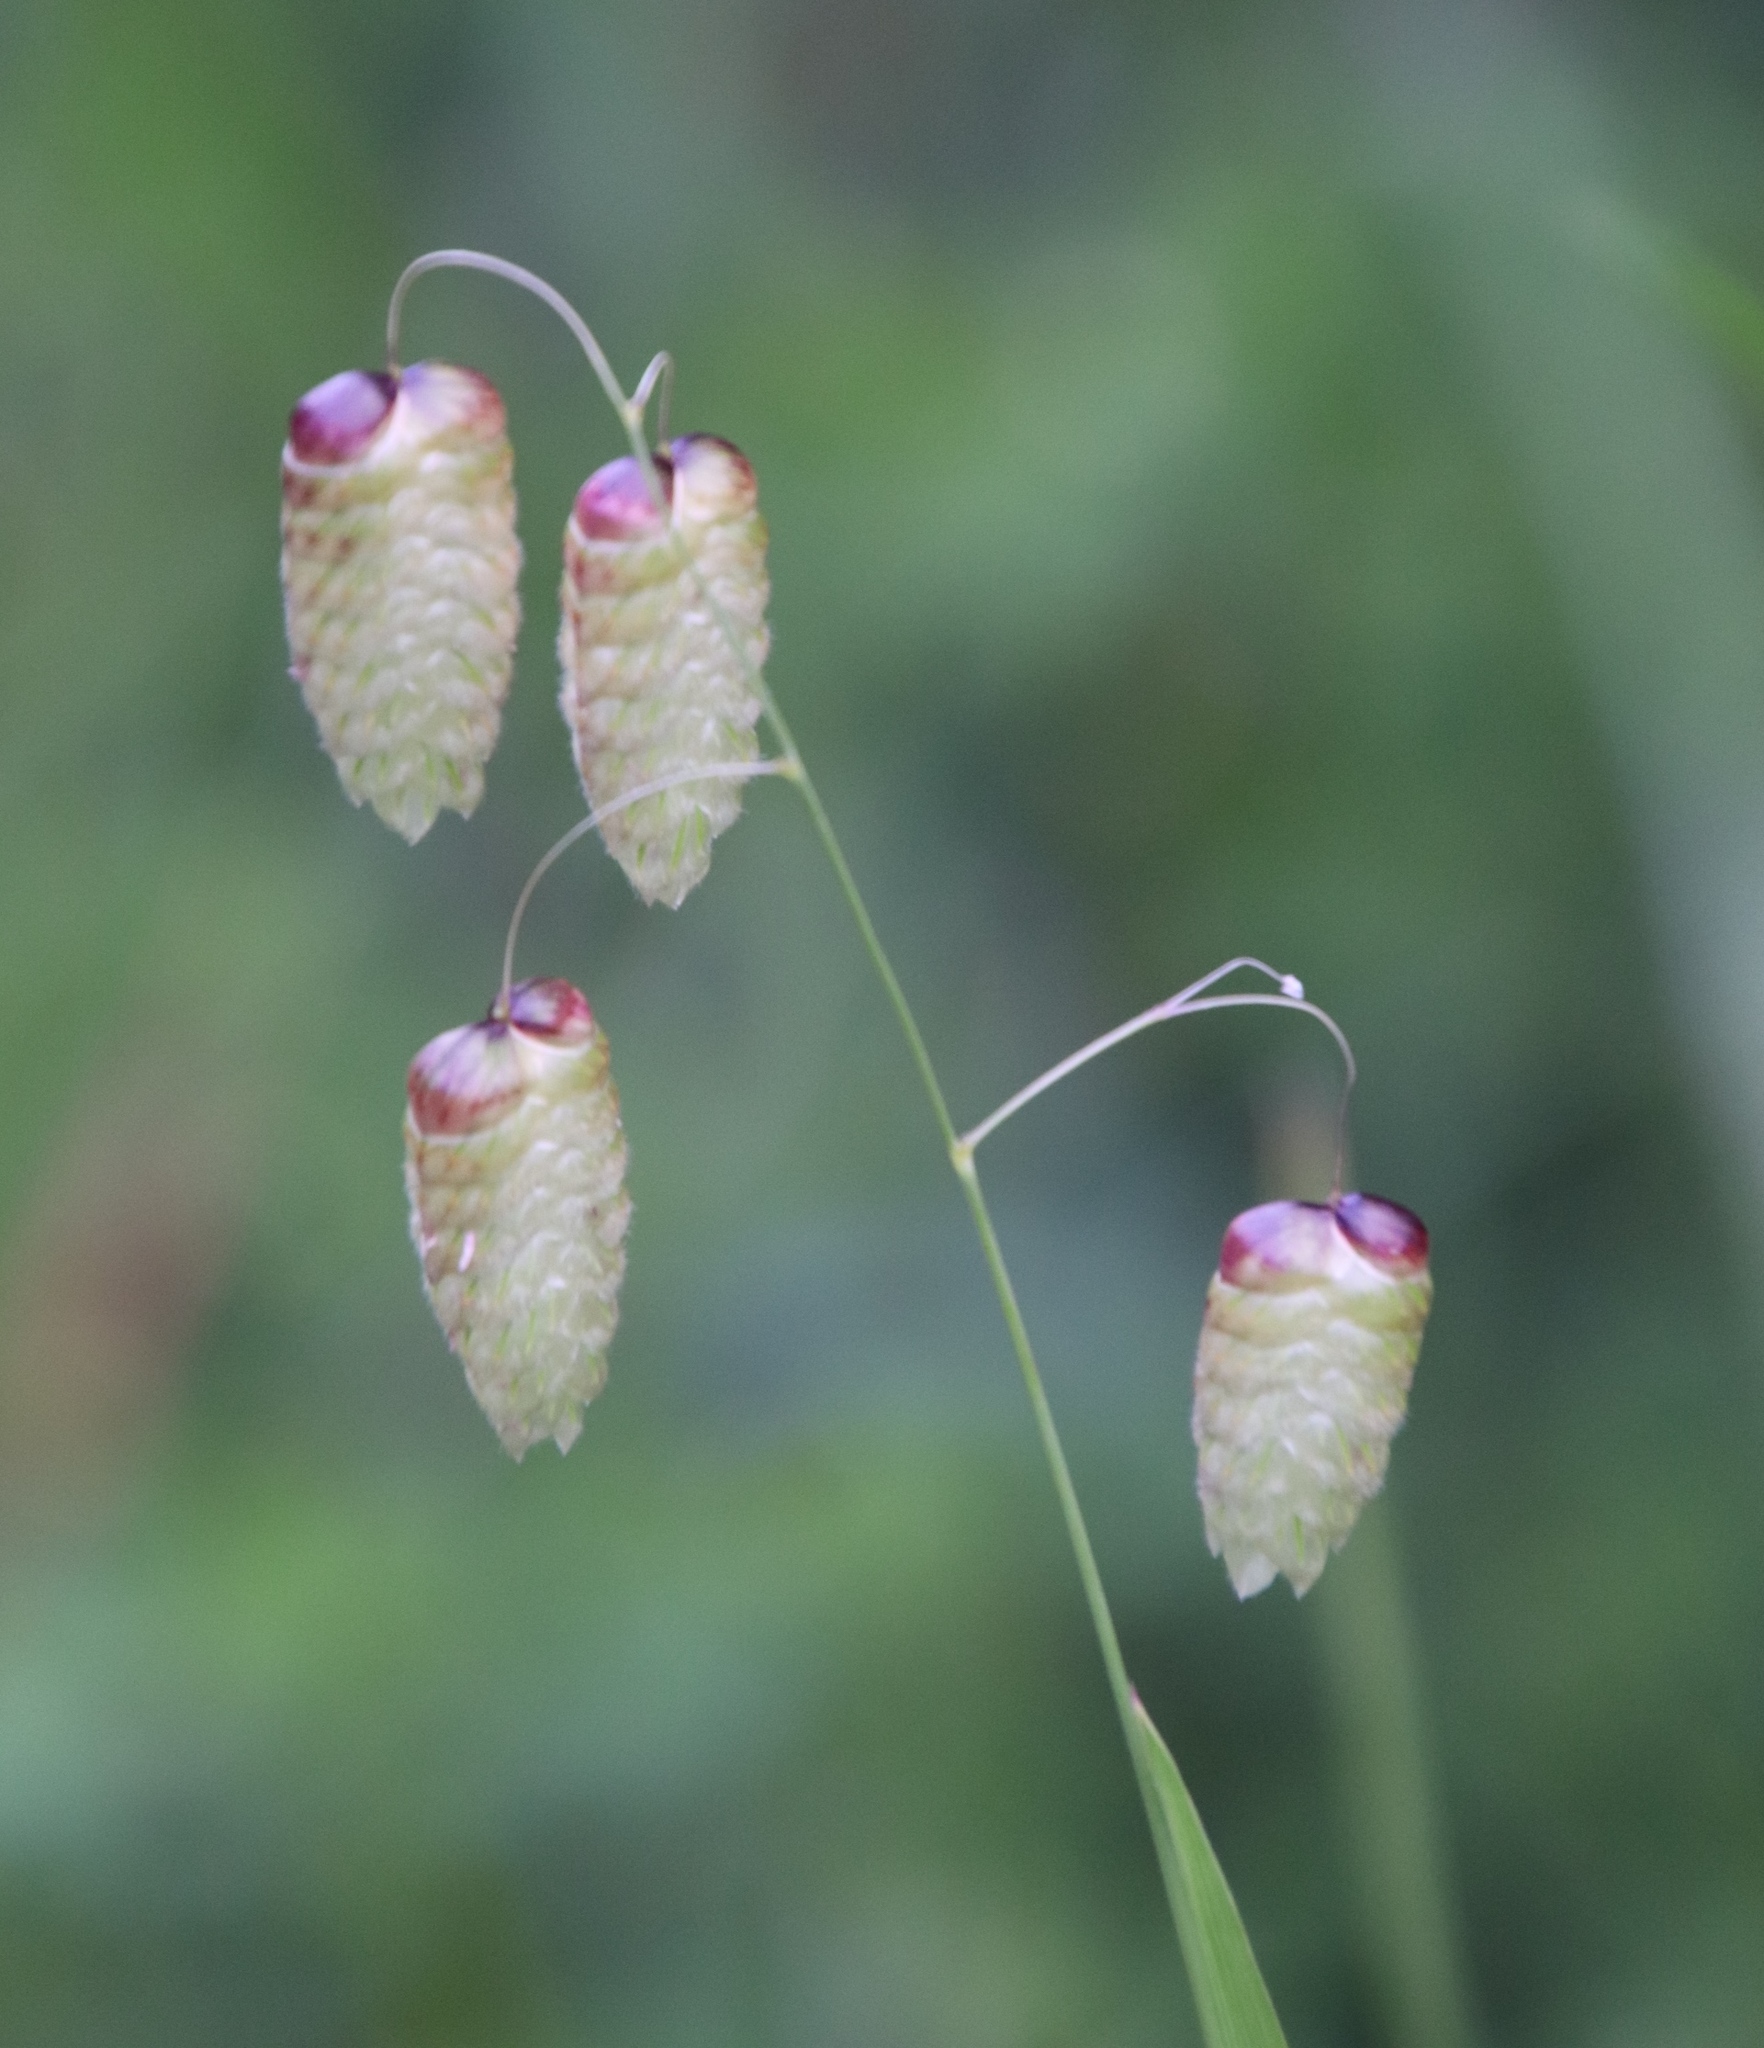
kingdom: Plantae
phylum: Tracheophyta
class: Liliopsida
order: Poales
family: Poaceae
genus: Briza
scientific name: Briza maxima
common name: Big quakinggrass
